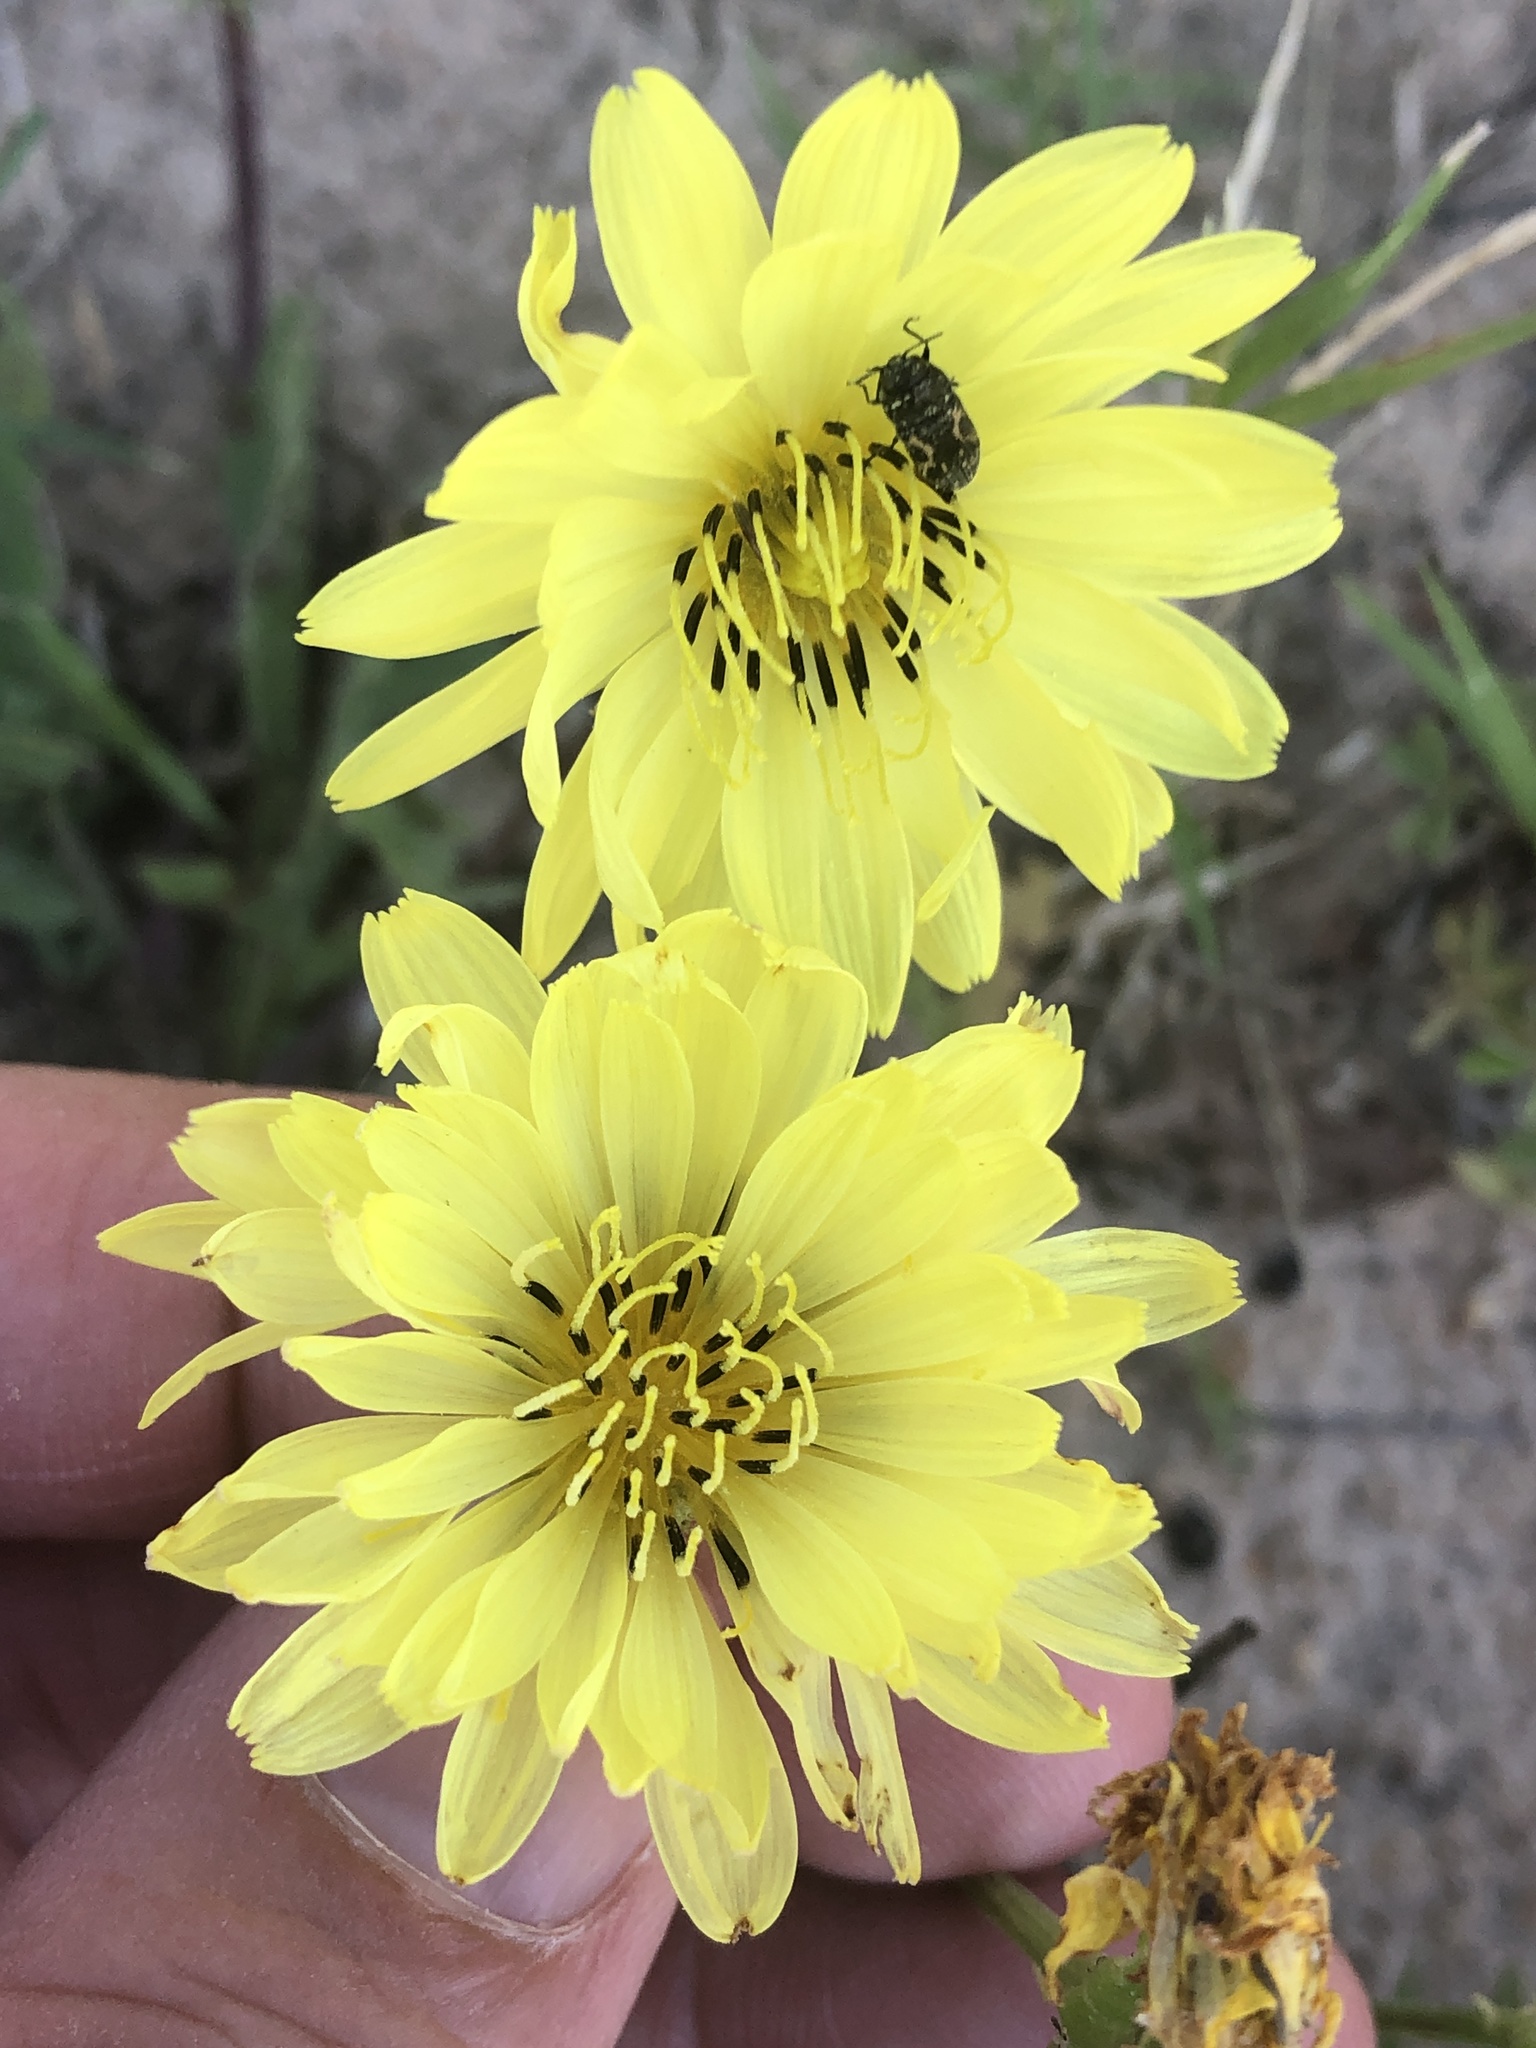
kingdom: Plantae
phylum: Tracheophyta
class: Magnoliopsida
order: Asterales
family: Asteraceae
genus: Pyrrhopappus
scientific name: Pyrrhopappus pauciflorus
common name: Texas false dandelion
